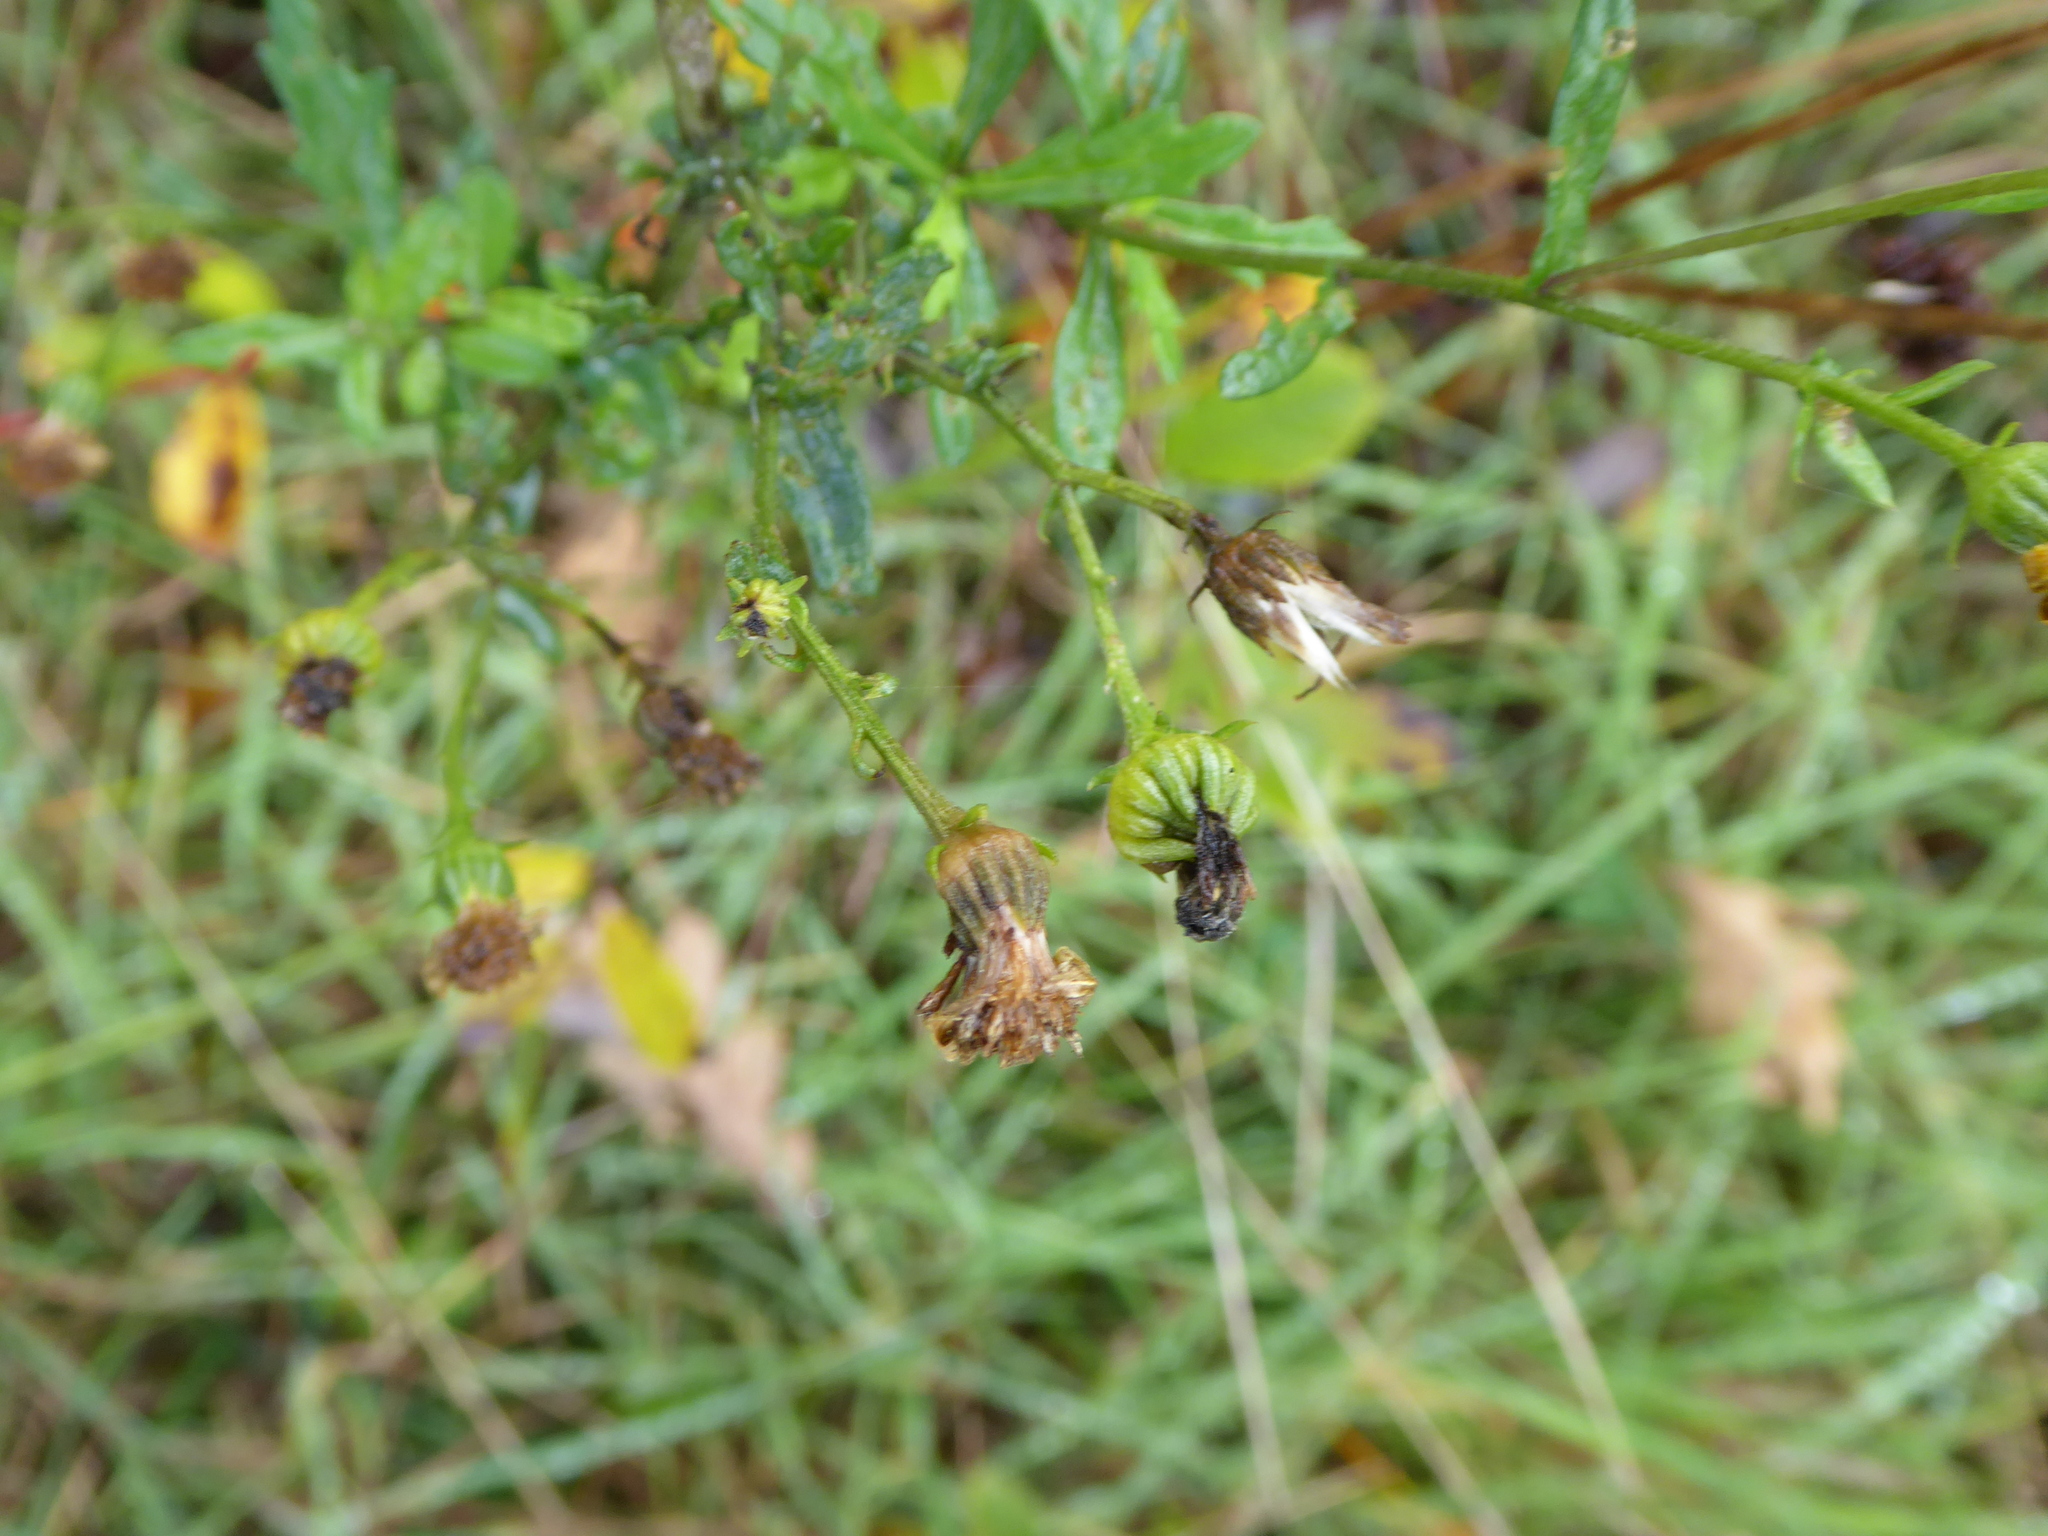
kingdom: Plantae
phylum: Tracheophyta
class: Magnoliopsida
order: Asterales
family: Asteraceae
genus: Jacobaea
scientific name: Jacobaea erucifolia
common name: Hoary ragwort
